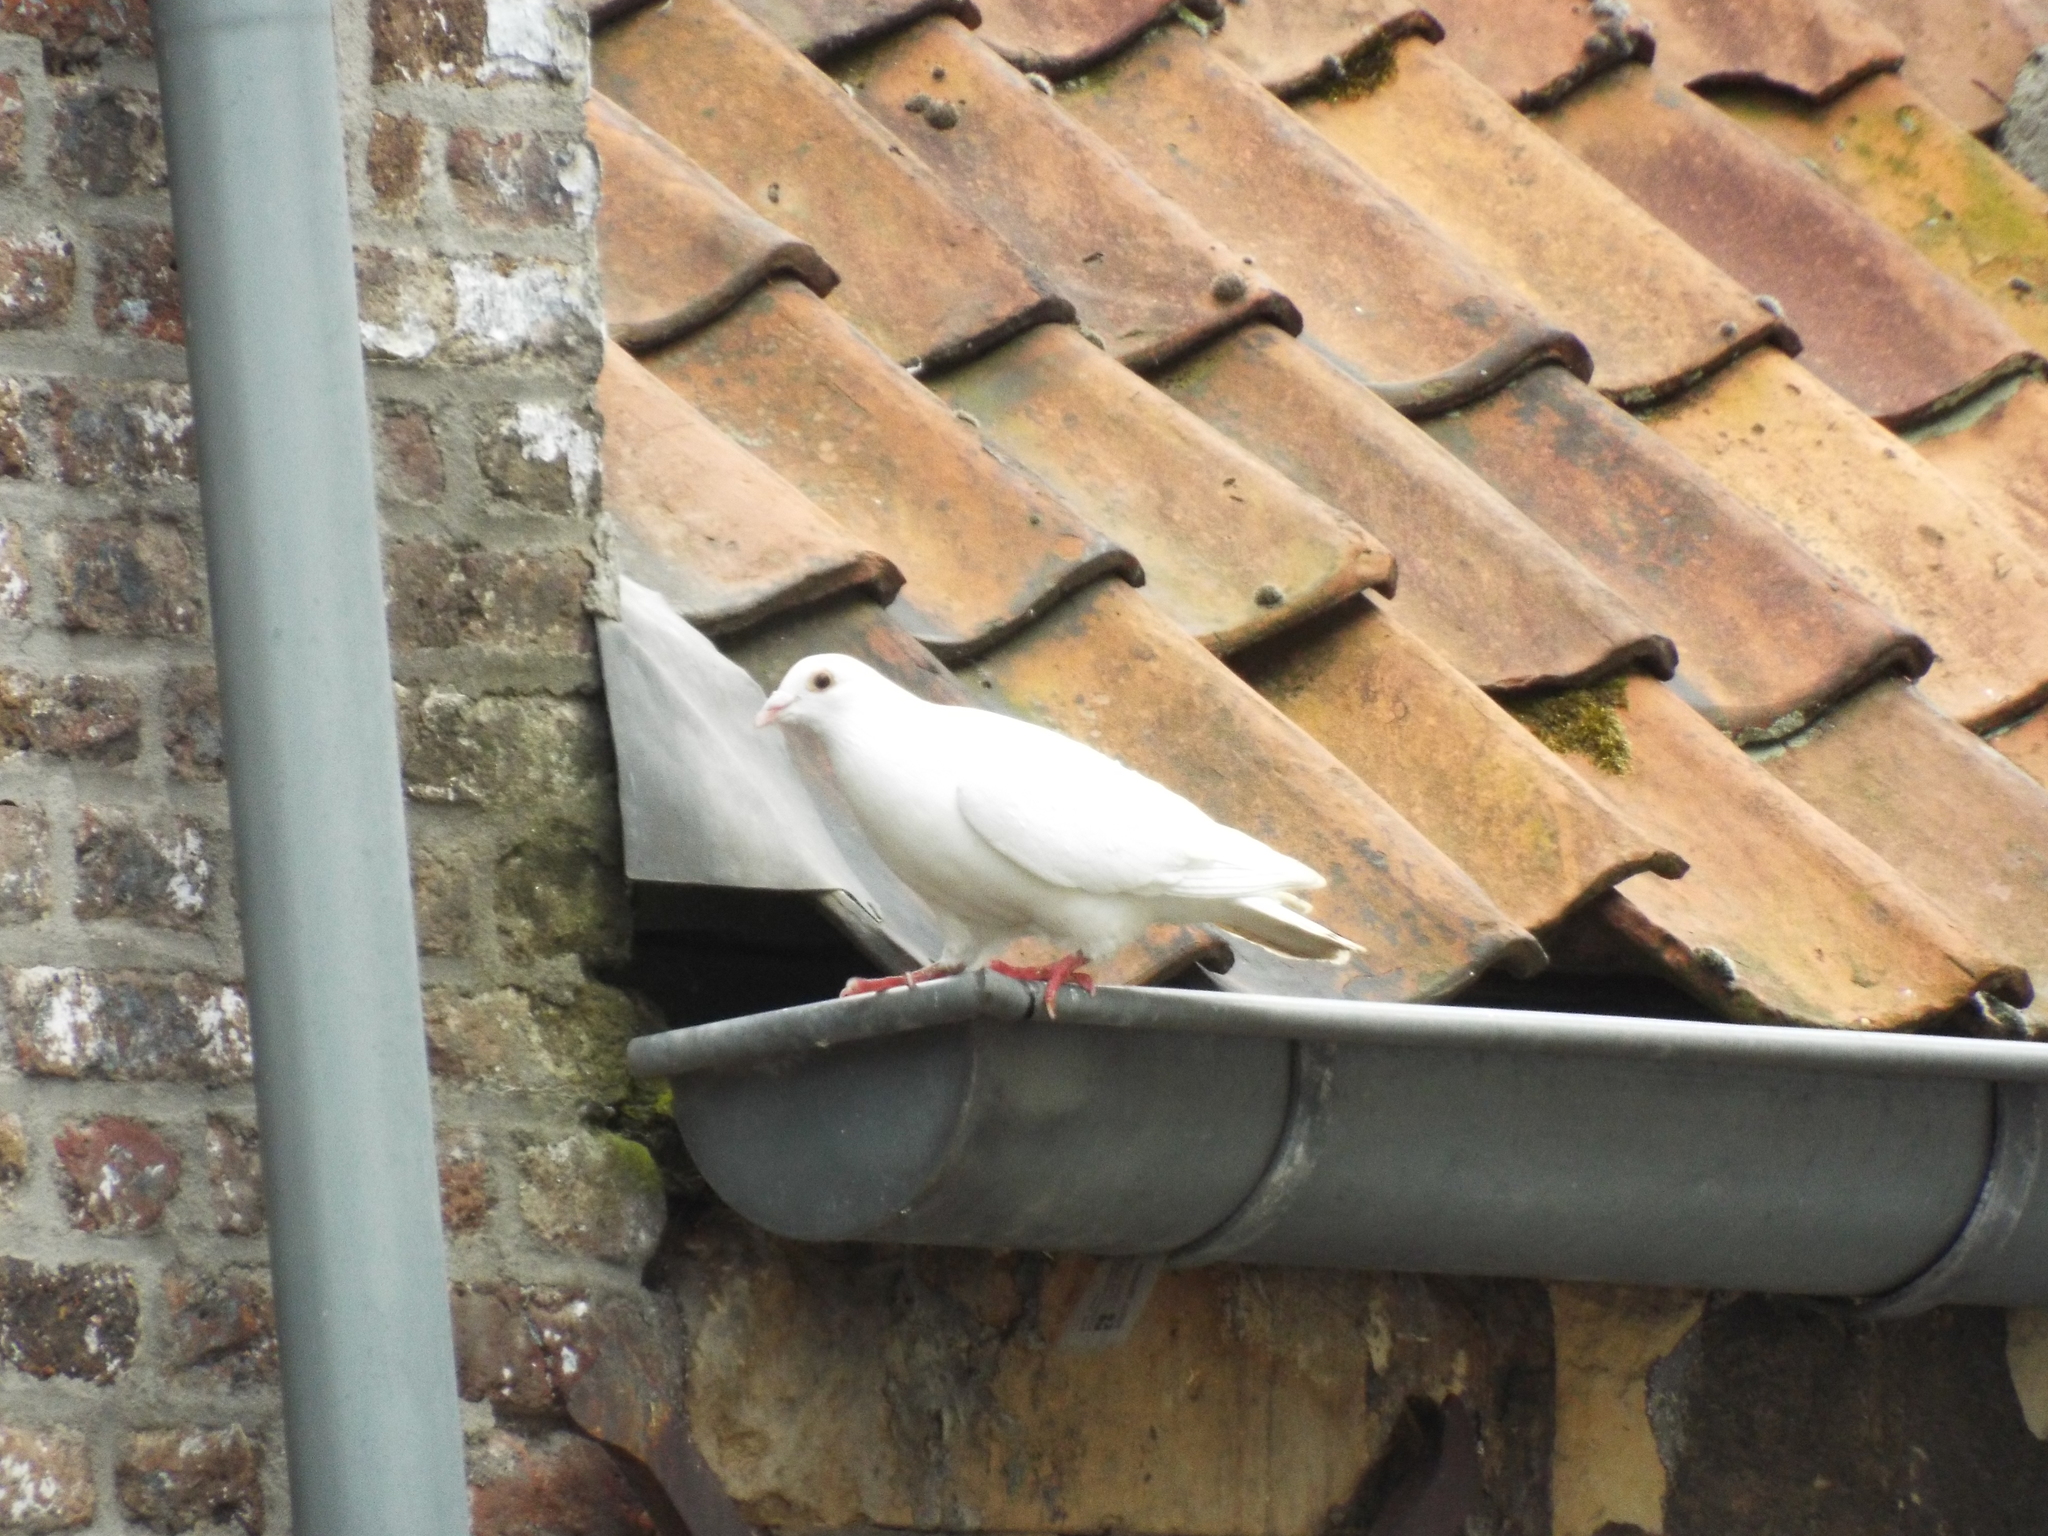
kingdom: Animalia
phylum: Chordata
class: Aves
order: Columbiformes
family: Columbidae
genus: Columba
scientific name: Columba livia
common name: Rock pigeon
